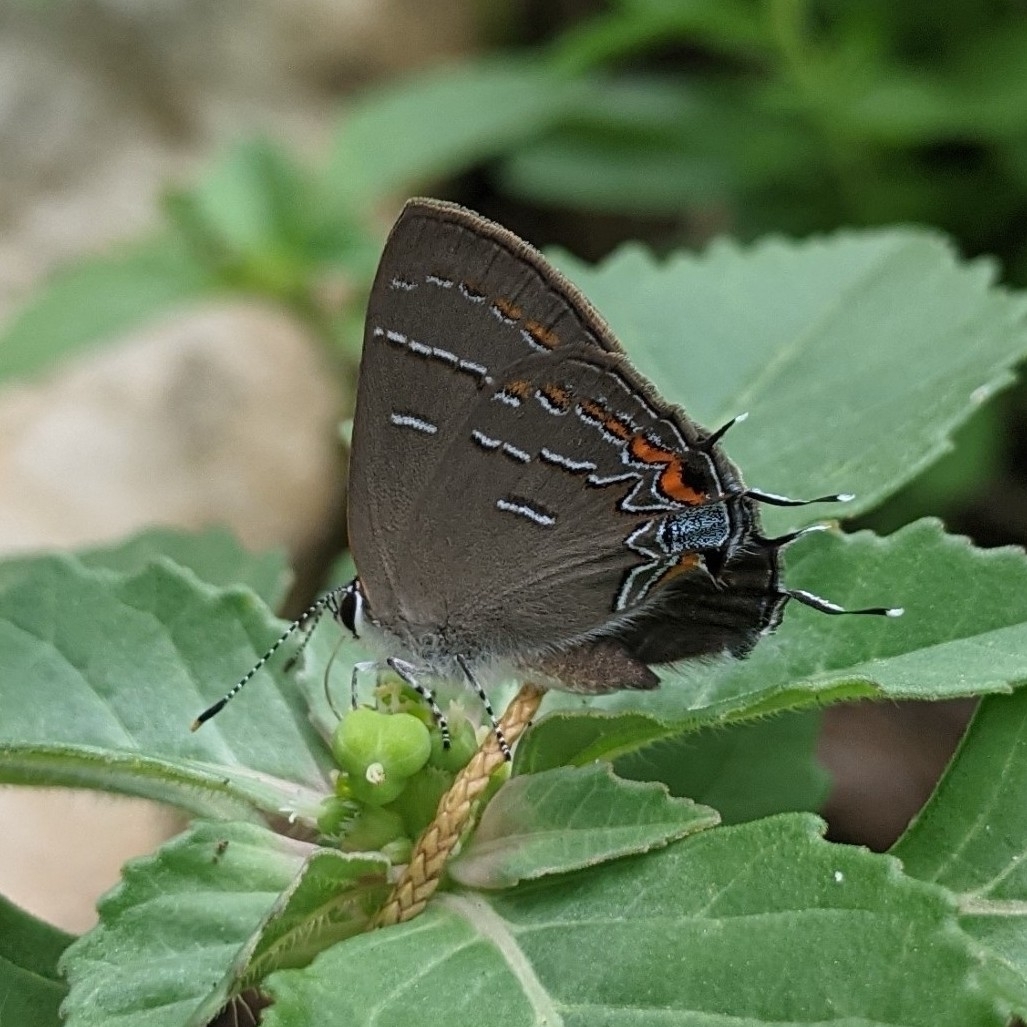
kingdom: Animalia
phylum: Arthropoda
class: Insecta
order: Lepidoptera
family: Lycaenidae
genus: Phaeostrymon
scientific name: Phaeostrymon alcestis
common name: Soapberry hairstreak
